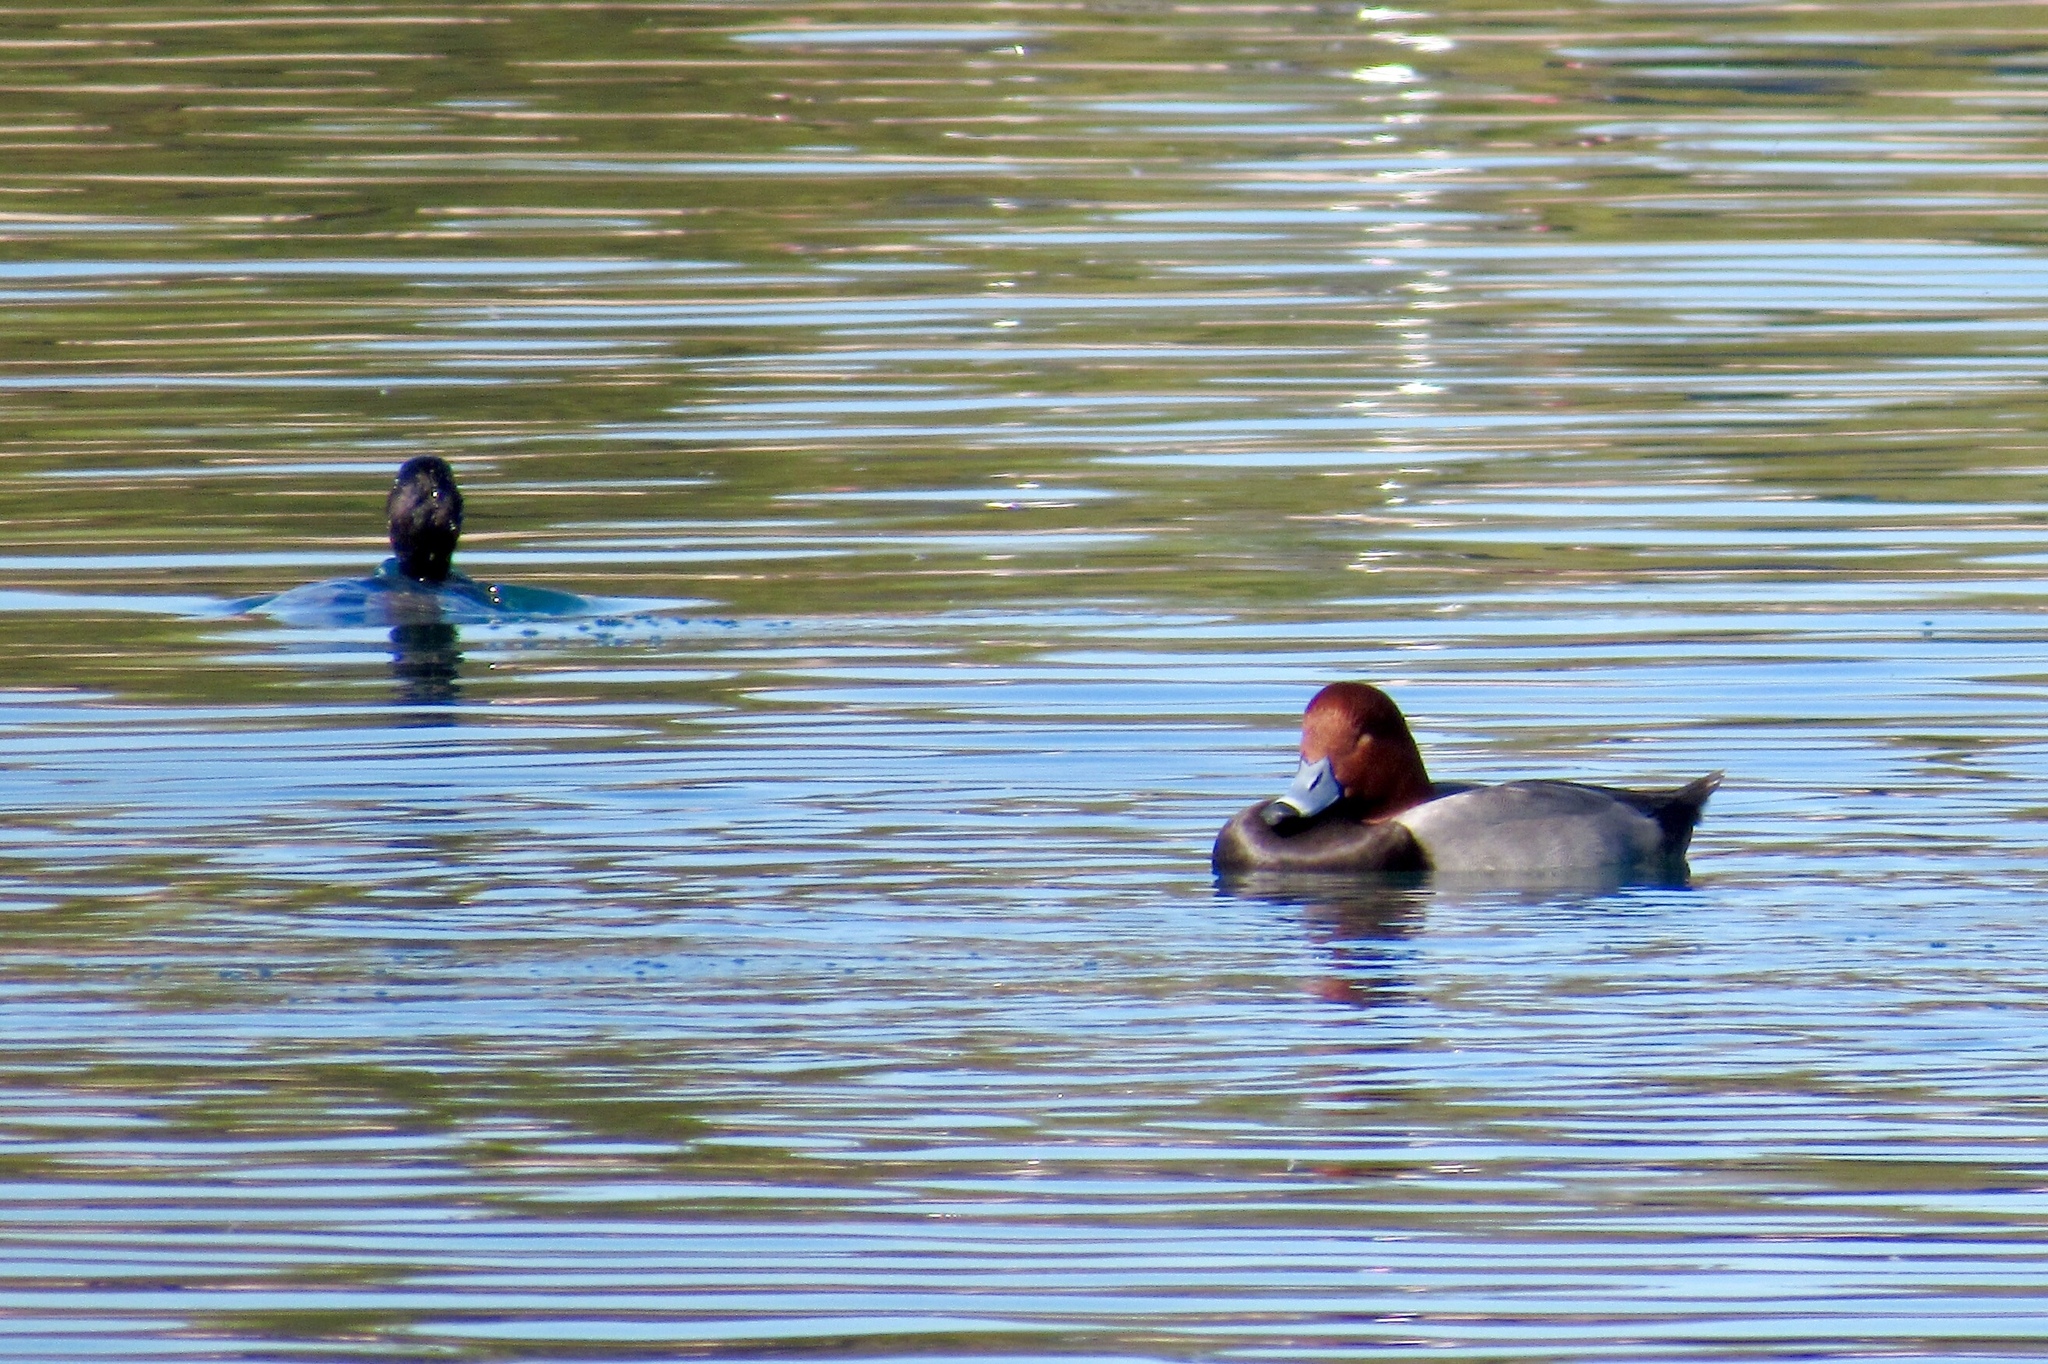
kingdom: Animalia
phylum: Chordata
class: Aves
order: Anseriformes
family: Anatidae
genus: Aythya
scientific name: Aythya americana
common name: Redhead
